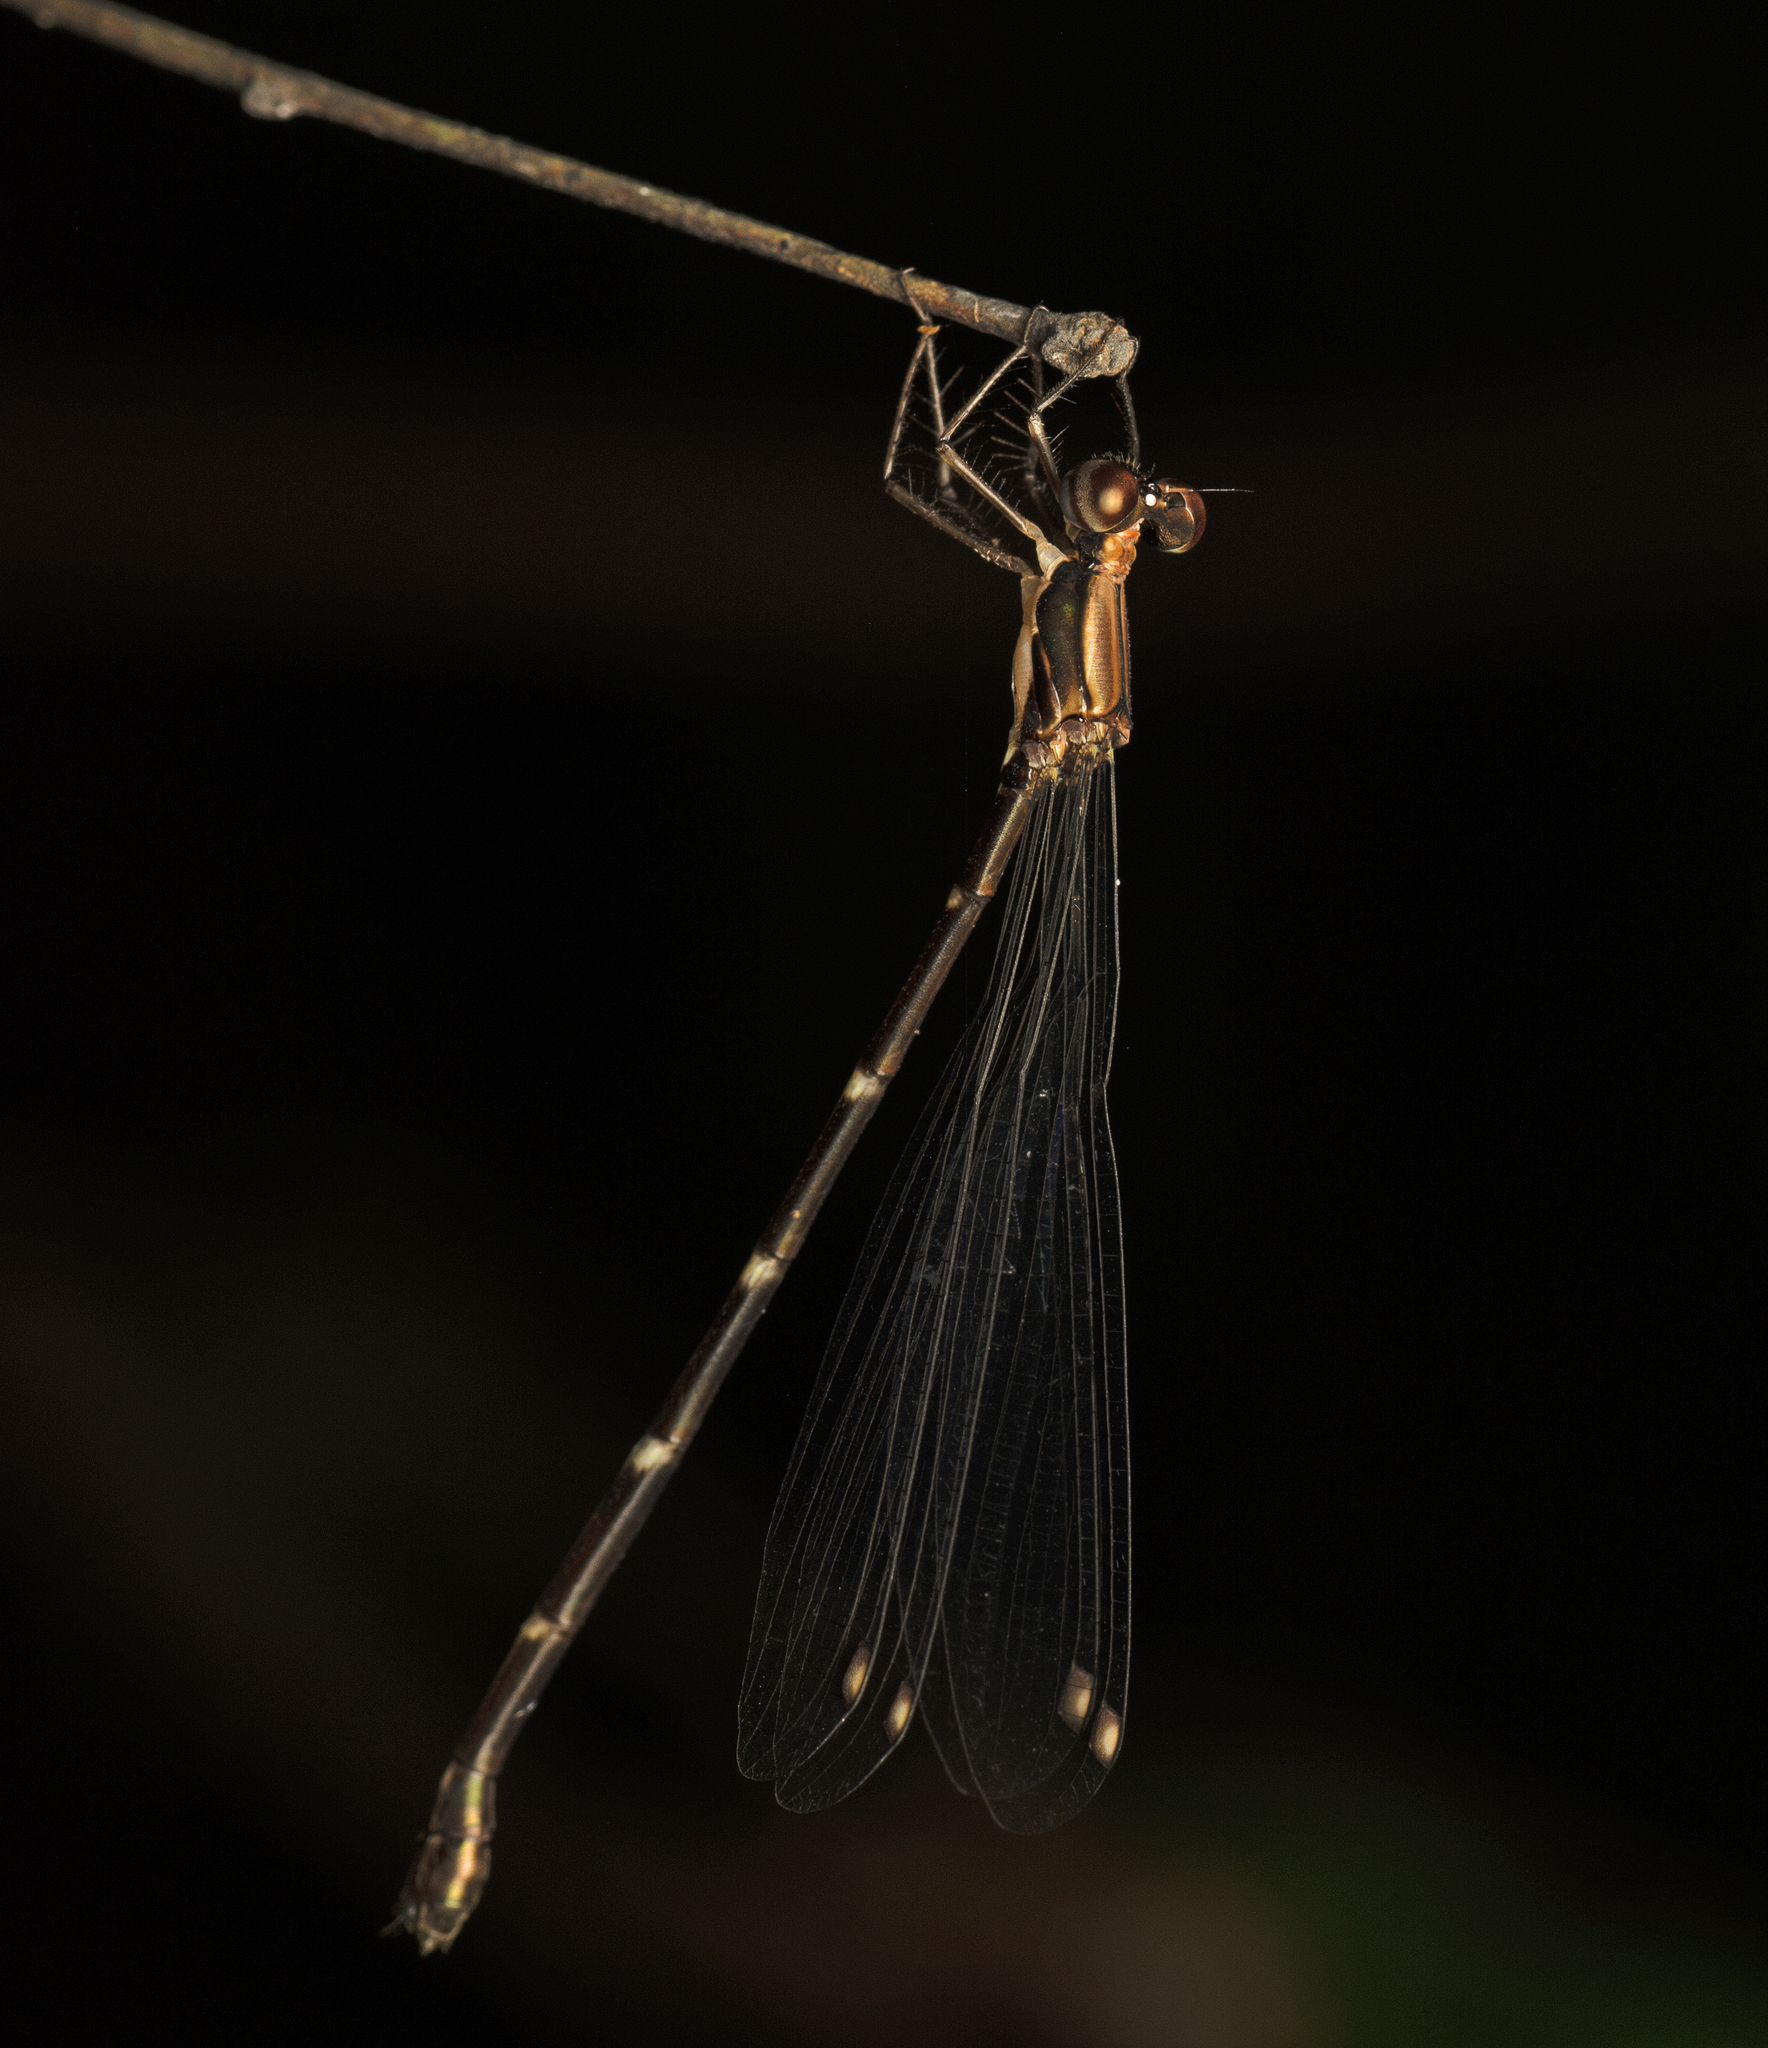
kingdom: Animalia
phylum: Arthropoda
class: Insecta
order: Odonata
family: Synlestidae
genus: Chorismagrion
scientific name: Chorismagrion risi
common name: Pretty relict
